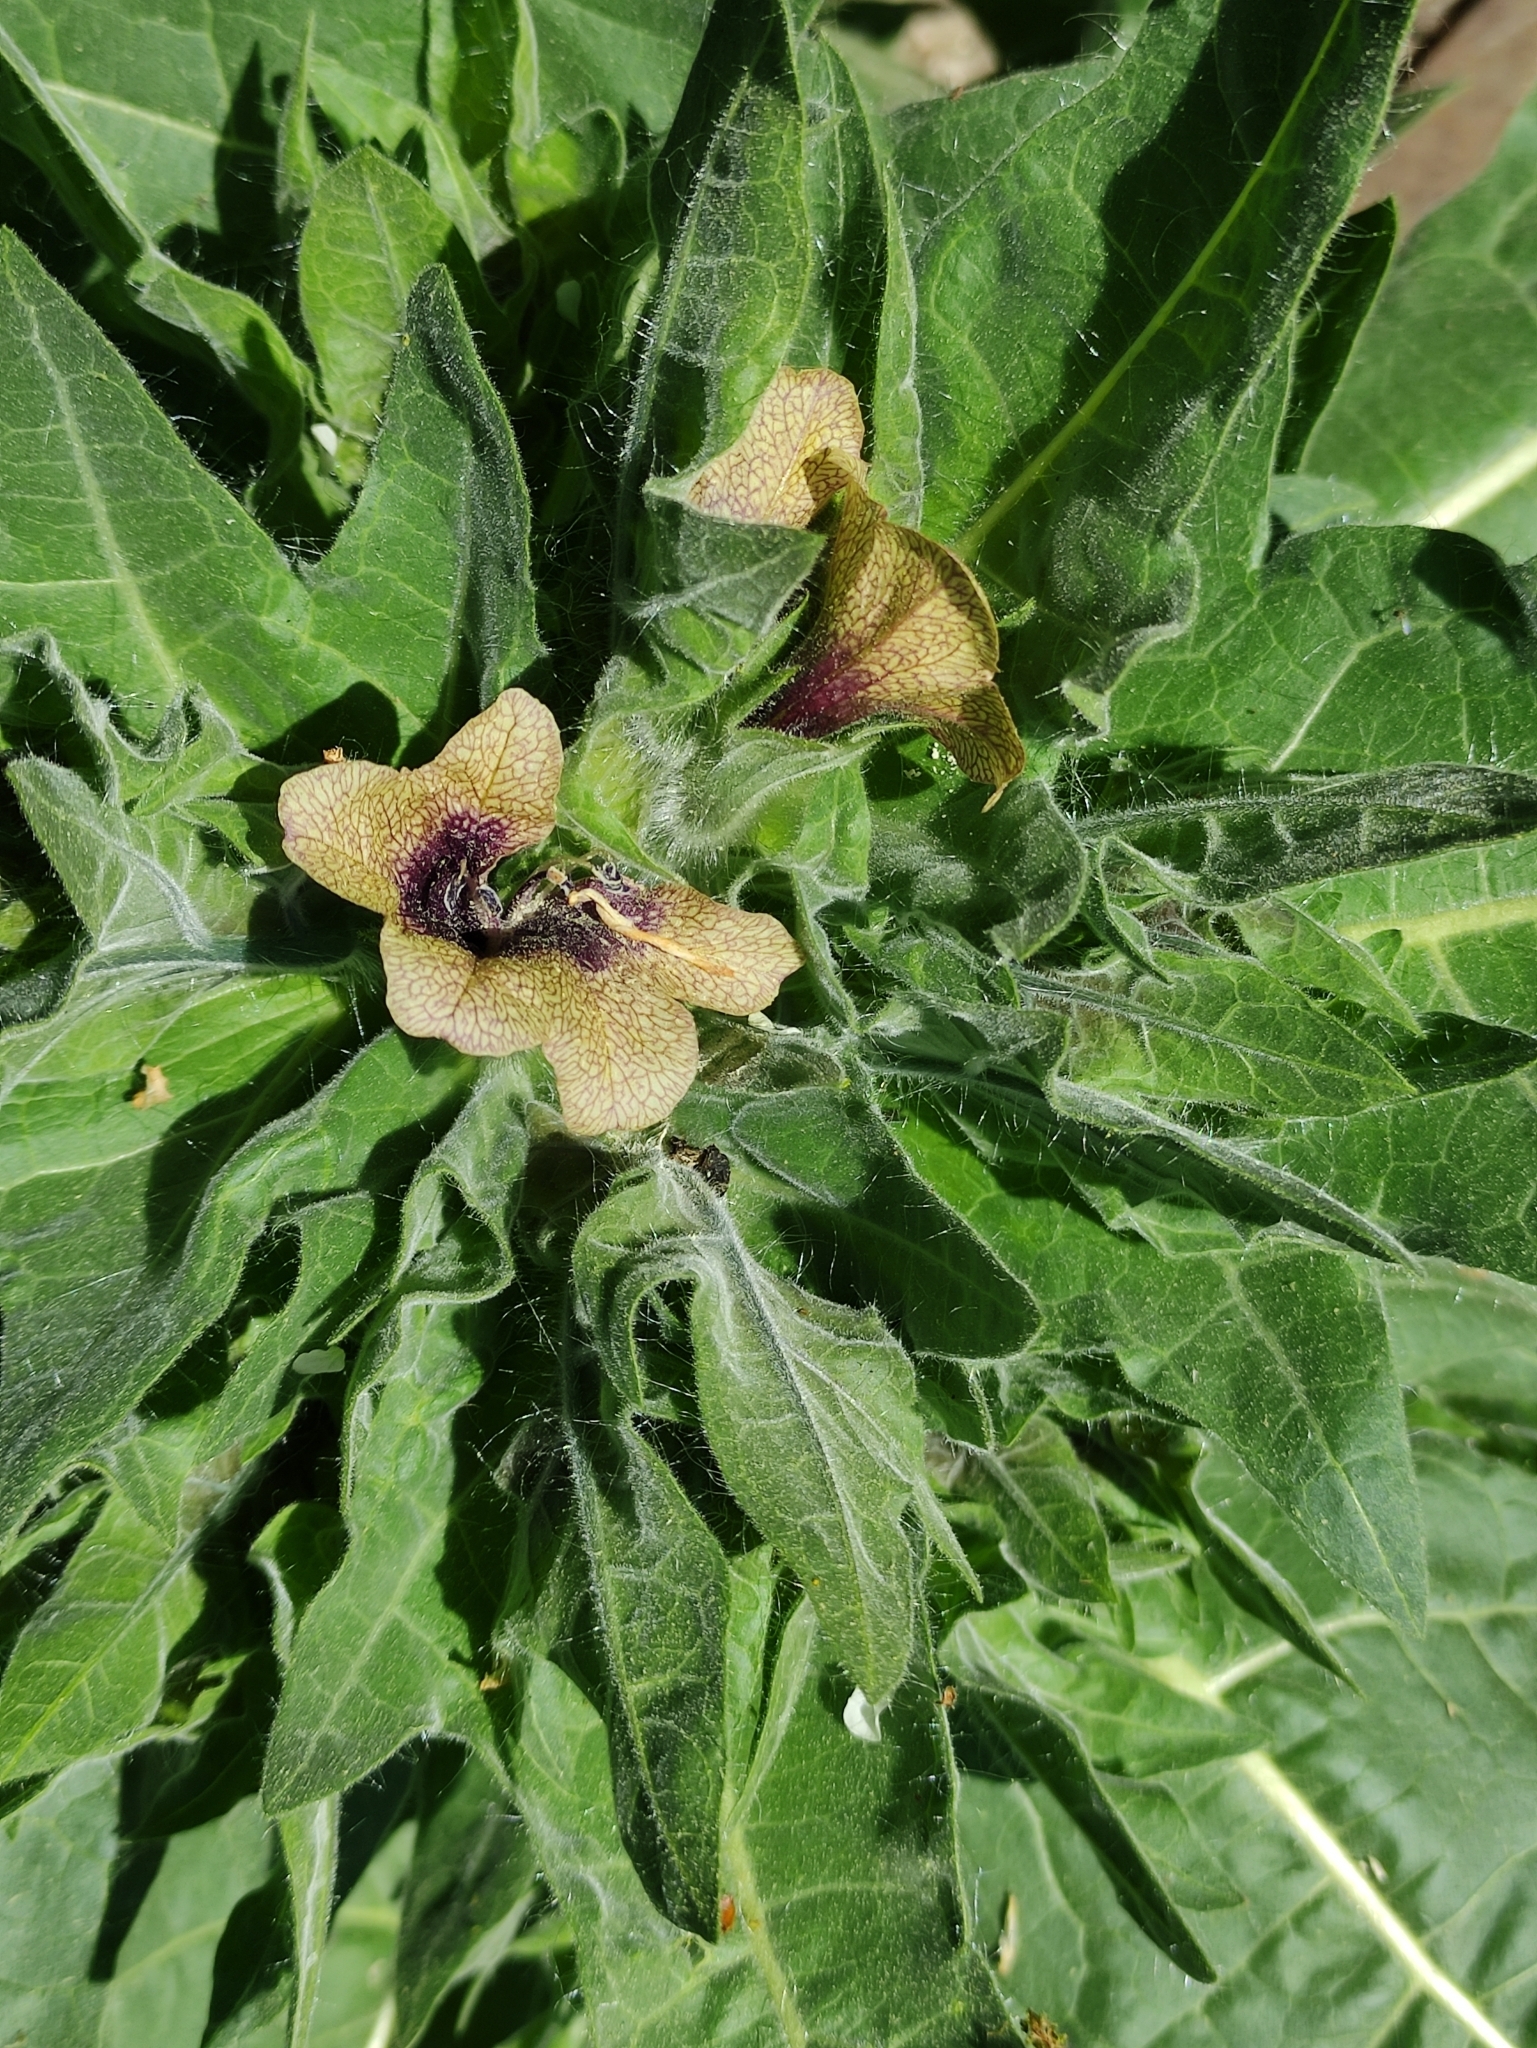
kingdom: Plantae
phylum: Tracheophyta
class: Magnoliopsida
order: Solanales
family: Solanaceae
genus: Hyoscyamus
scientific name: Hyoscyamus niger
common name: Henbane
